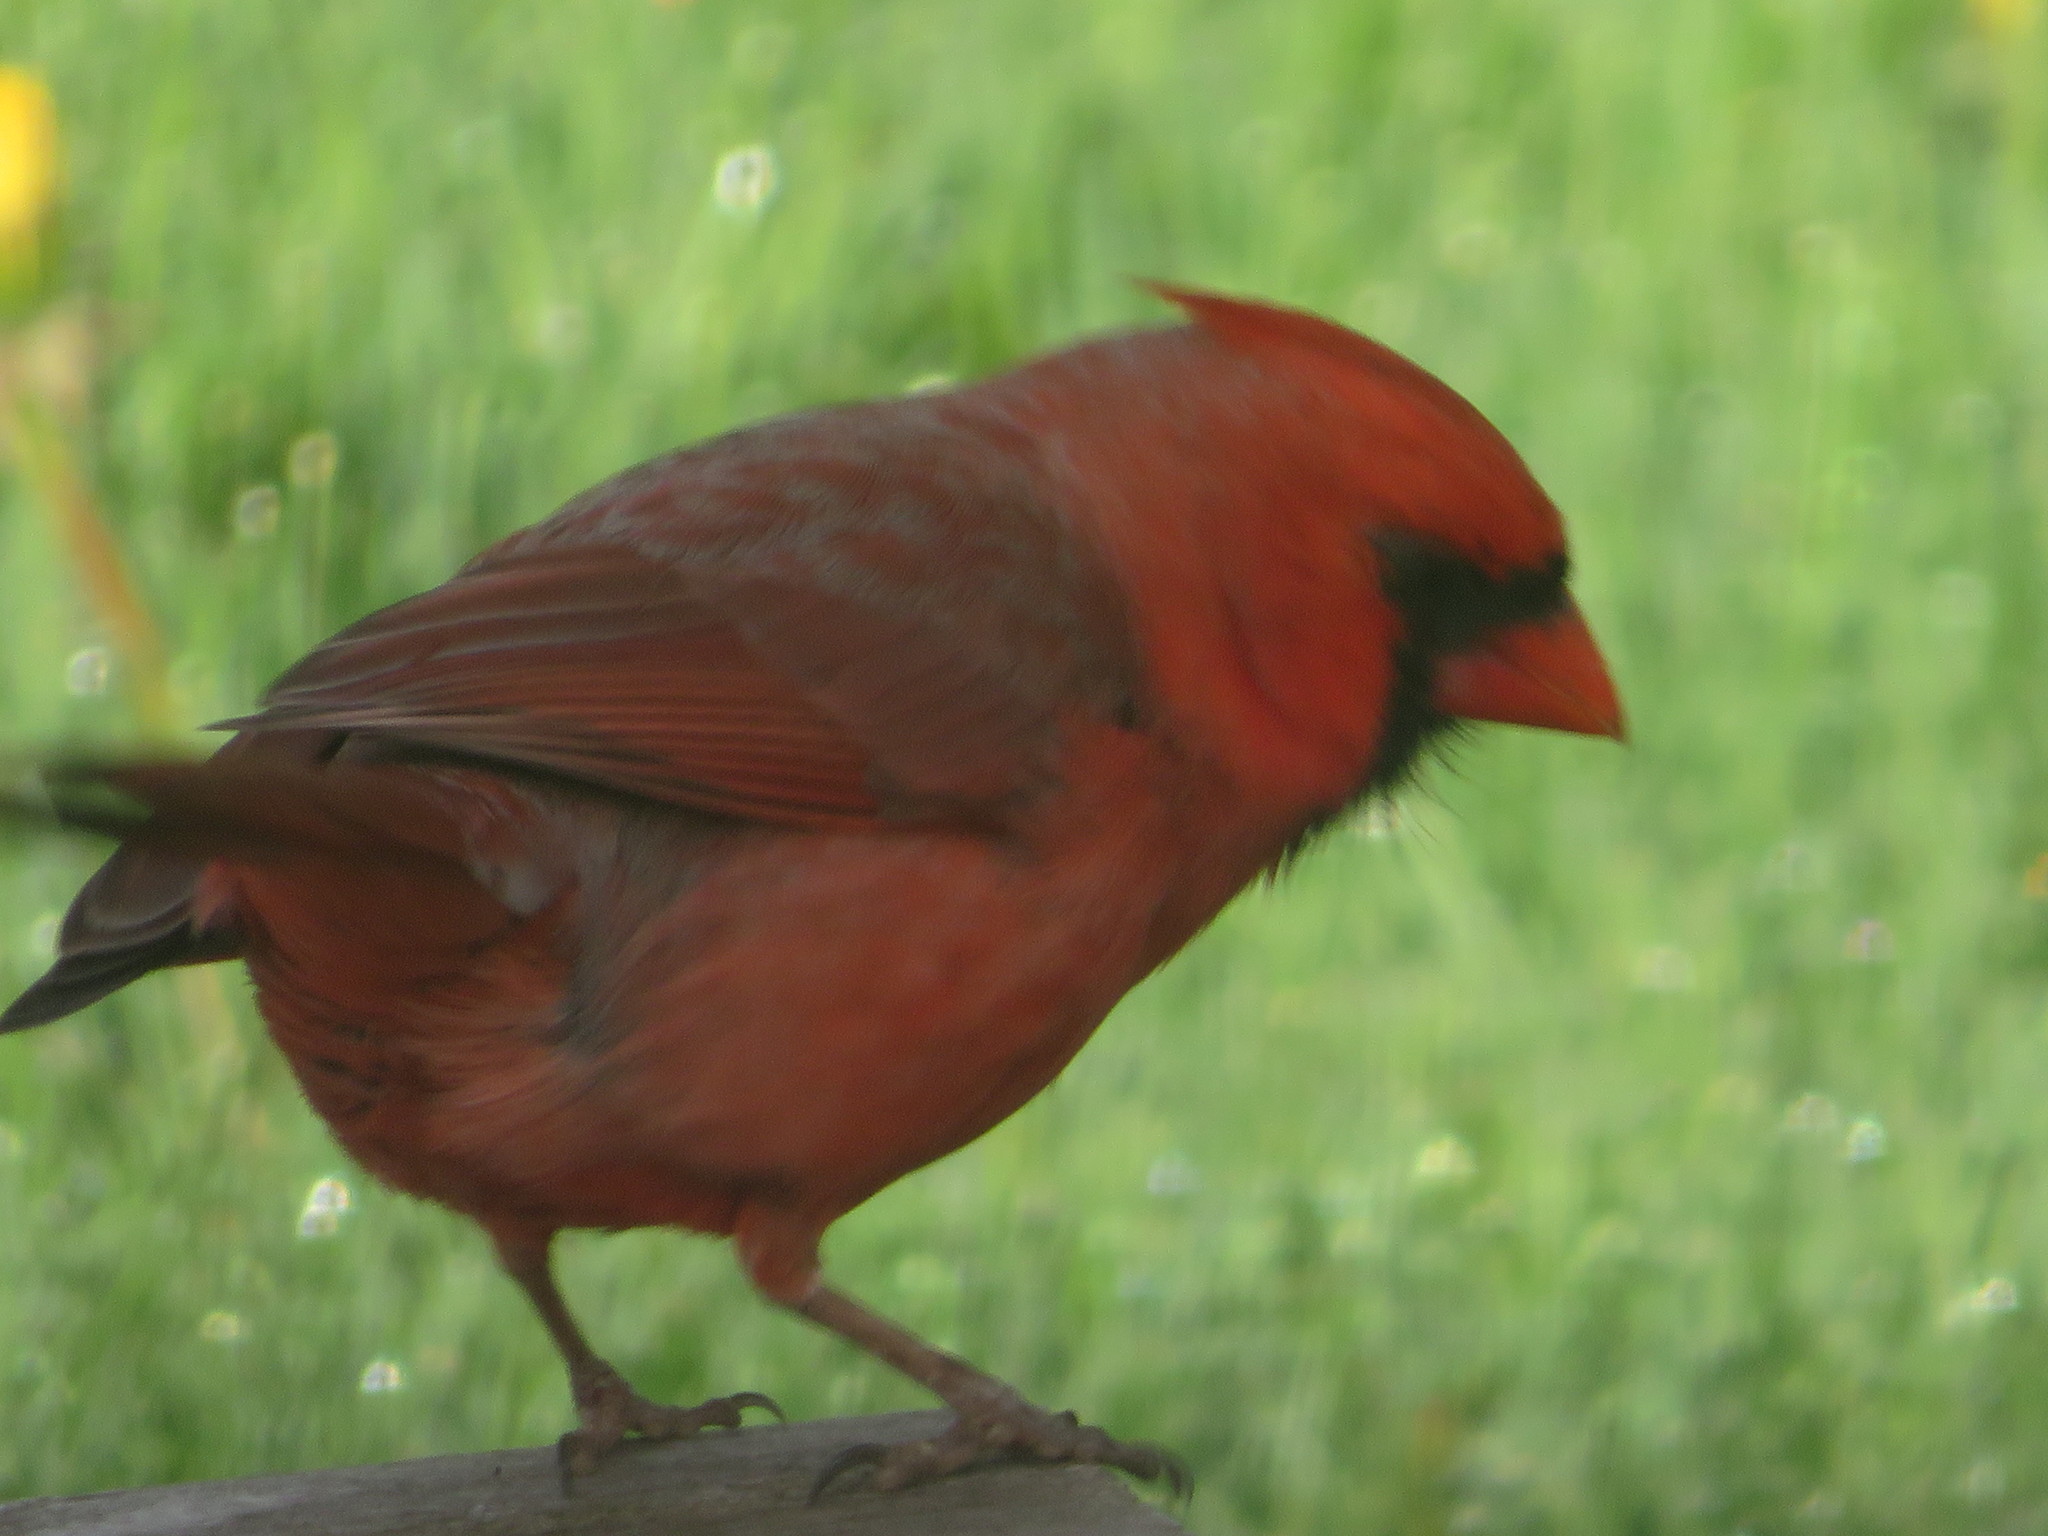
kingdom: Animalia
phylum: Chordata
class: Aves
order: Passeriformes
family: Cardinalidae
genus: Cardinalis
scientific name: Cardinalis cardinalis
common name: Northern cardinal
